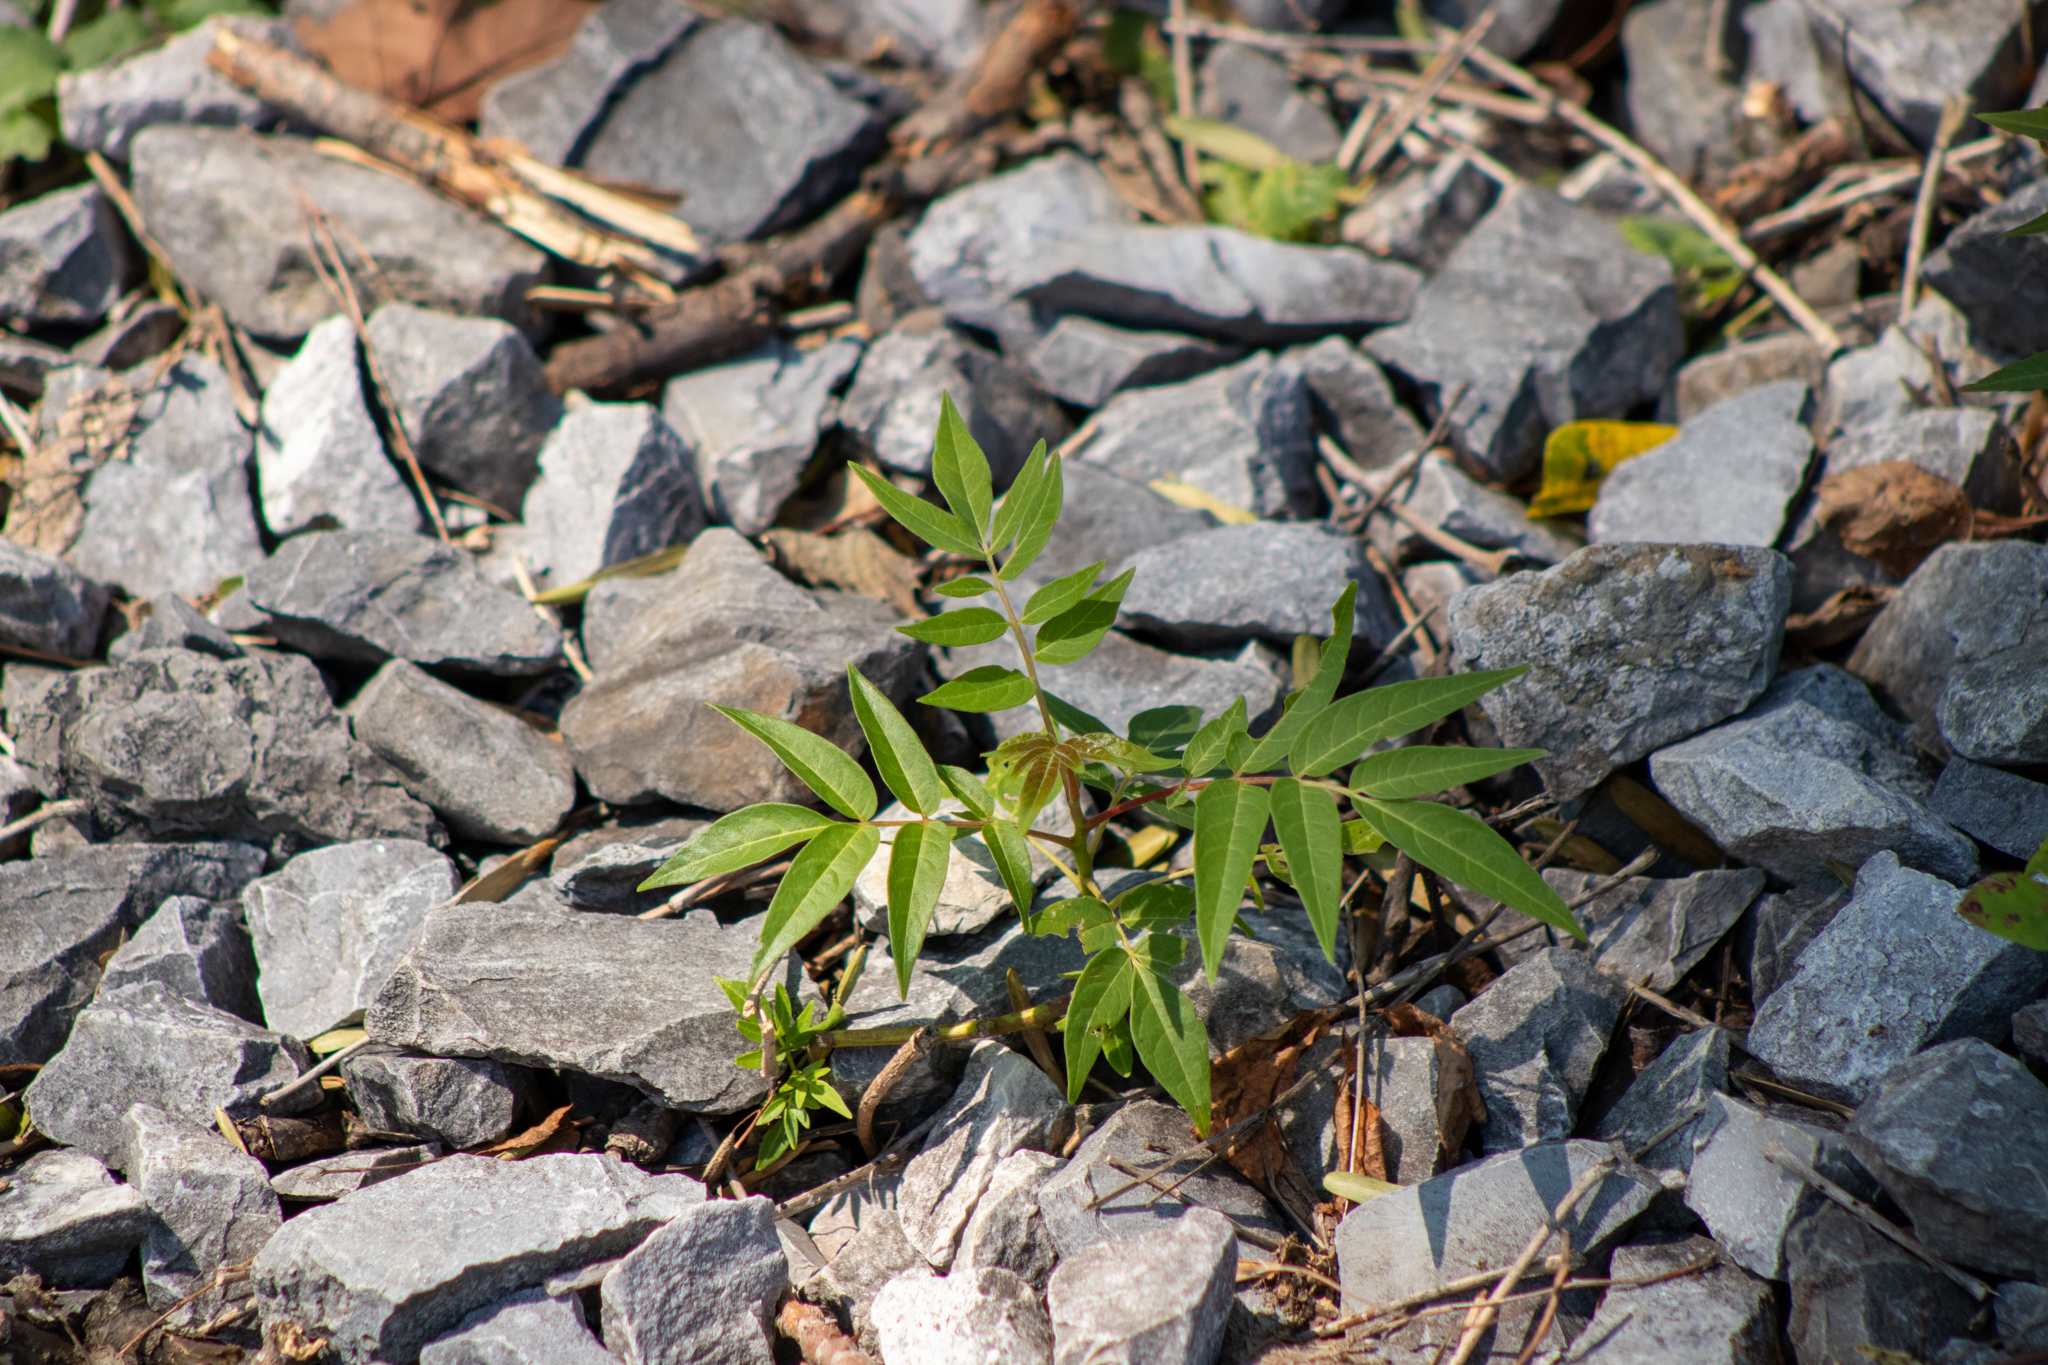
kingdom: Plantae
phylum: Tracheophyta
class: Magnoliopsida
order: Sapindales
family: Simaroubaceae
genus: Ailanthus
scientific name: Ailanthus altissima
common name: Tree-of-heaven
